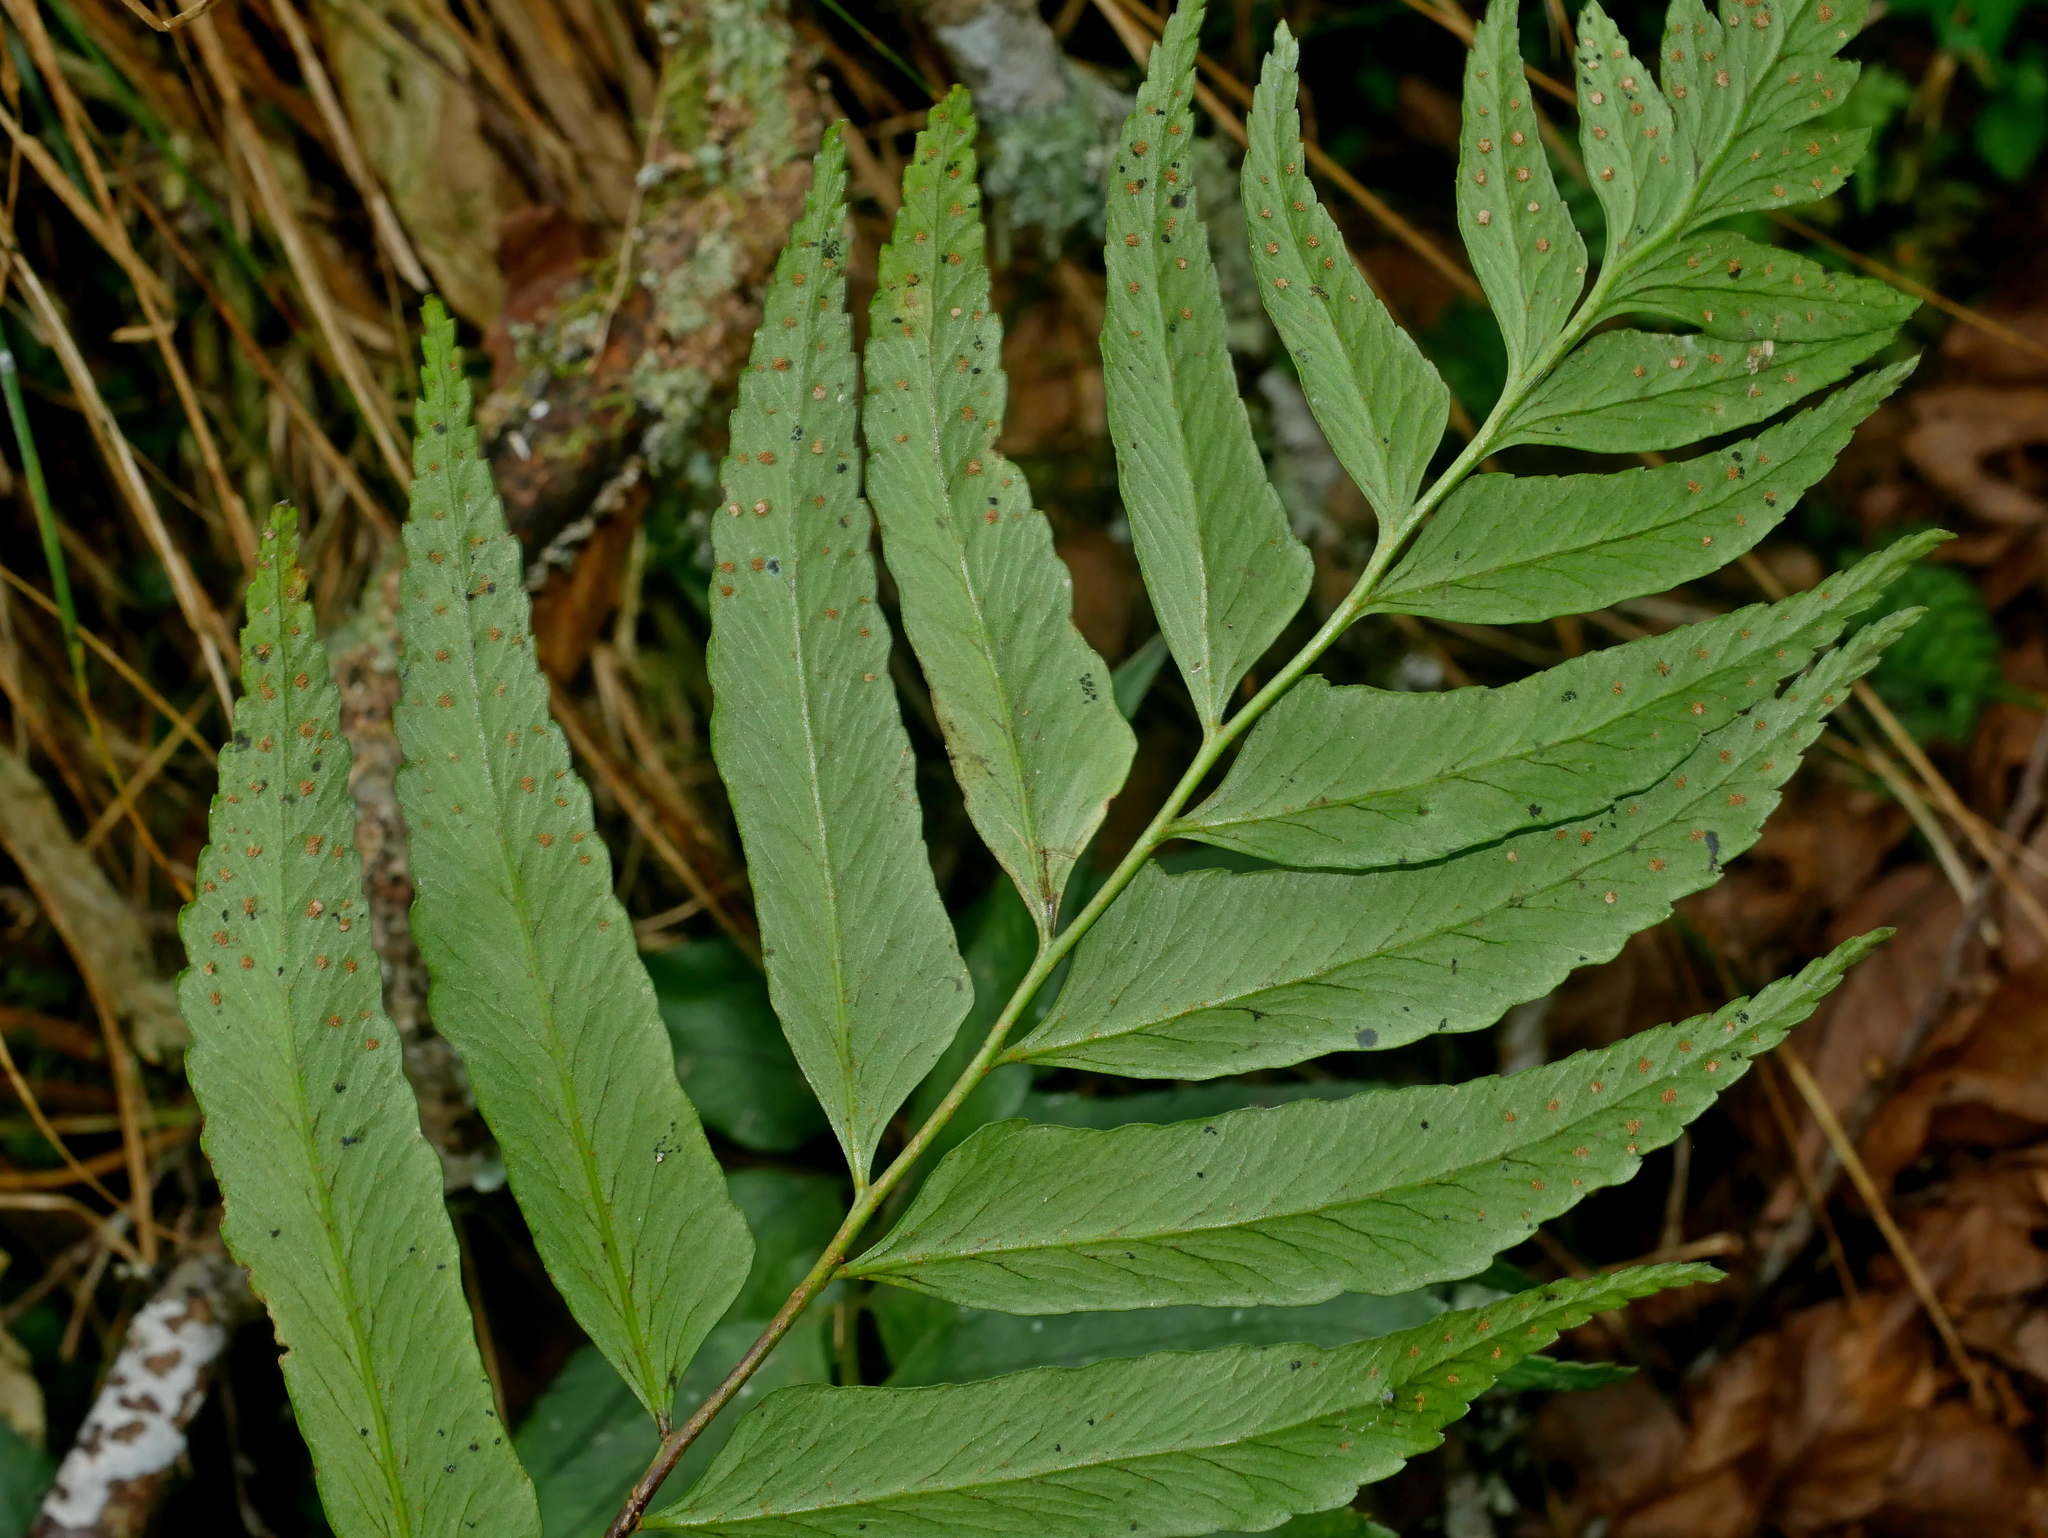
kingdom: Plantae
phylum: Tracheophyta
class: Polypodiopsida
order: Polypodiales
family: Dryopteridaceae
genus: Polystichum
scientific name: Polystichum integripinnum
